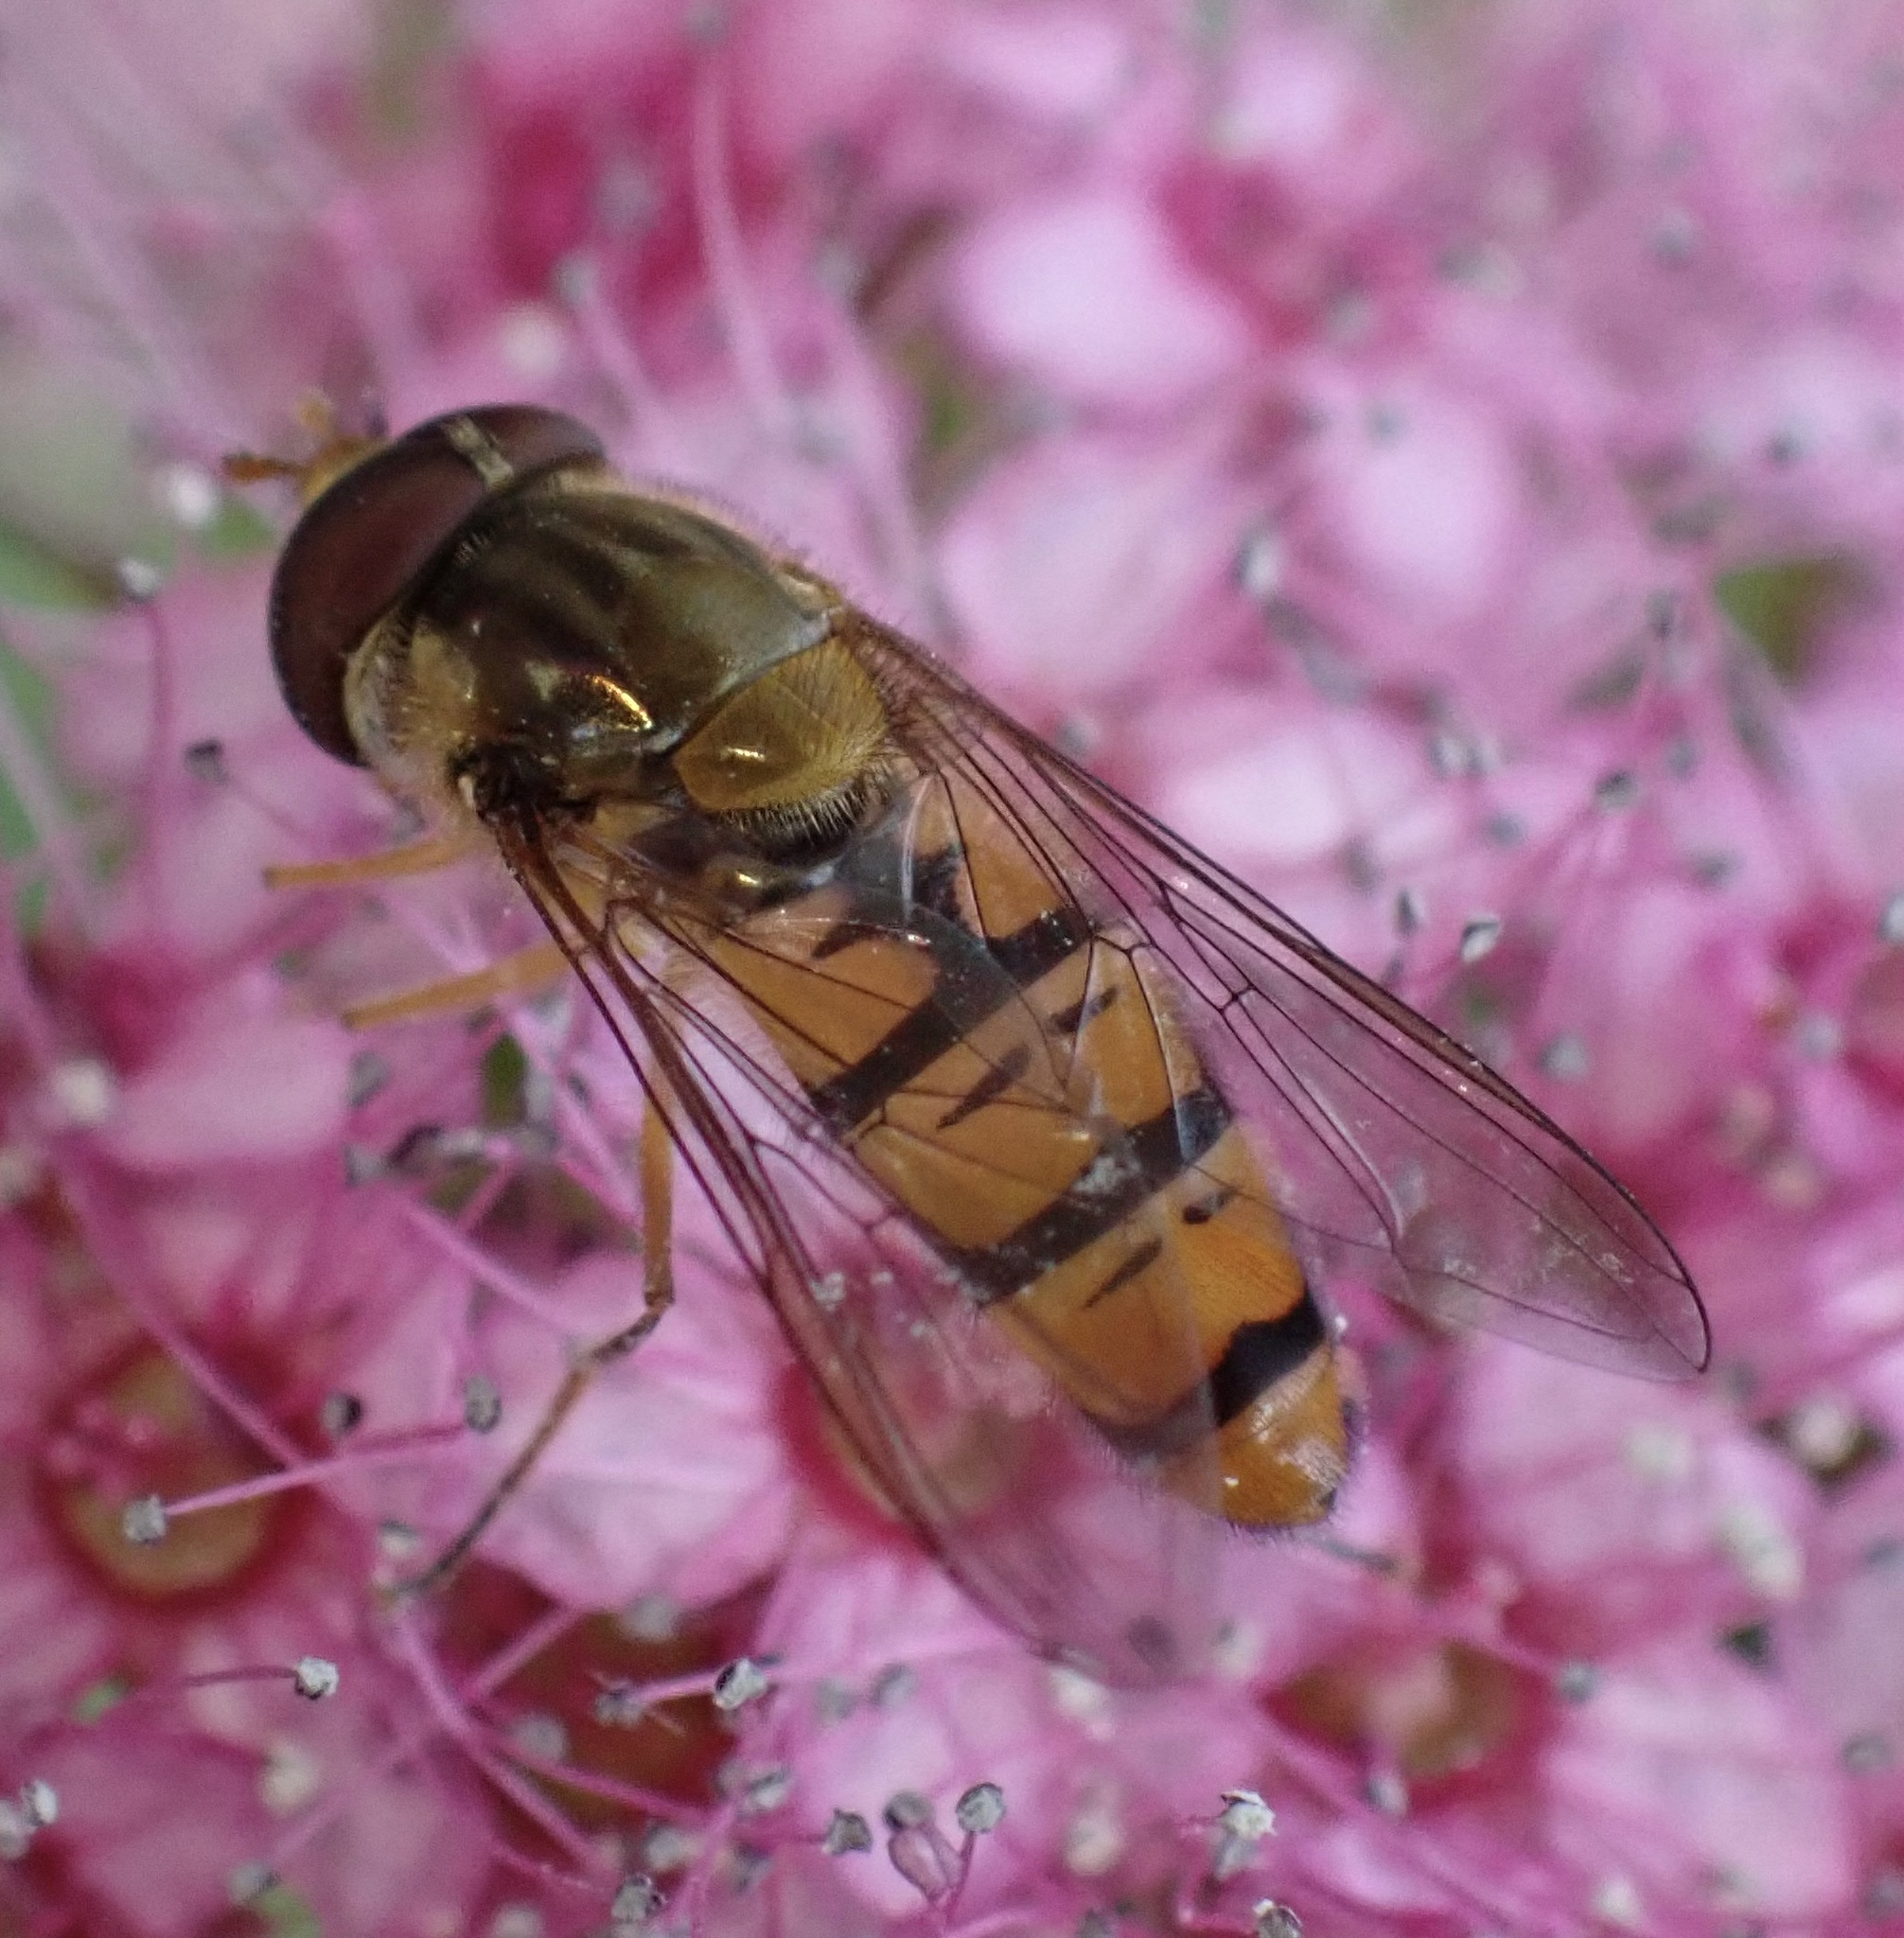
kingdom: Animalia
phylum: Arthropoda
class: Insecta
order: Diptera
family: Syrphidae
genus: Episyrphus
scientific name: Episyrphus balteatus
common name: Marmalade hoverfly
